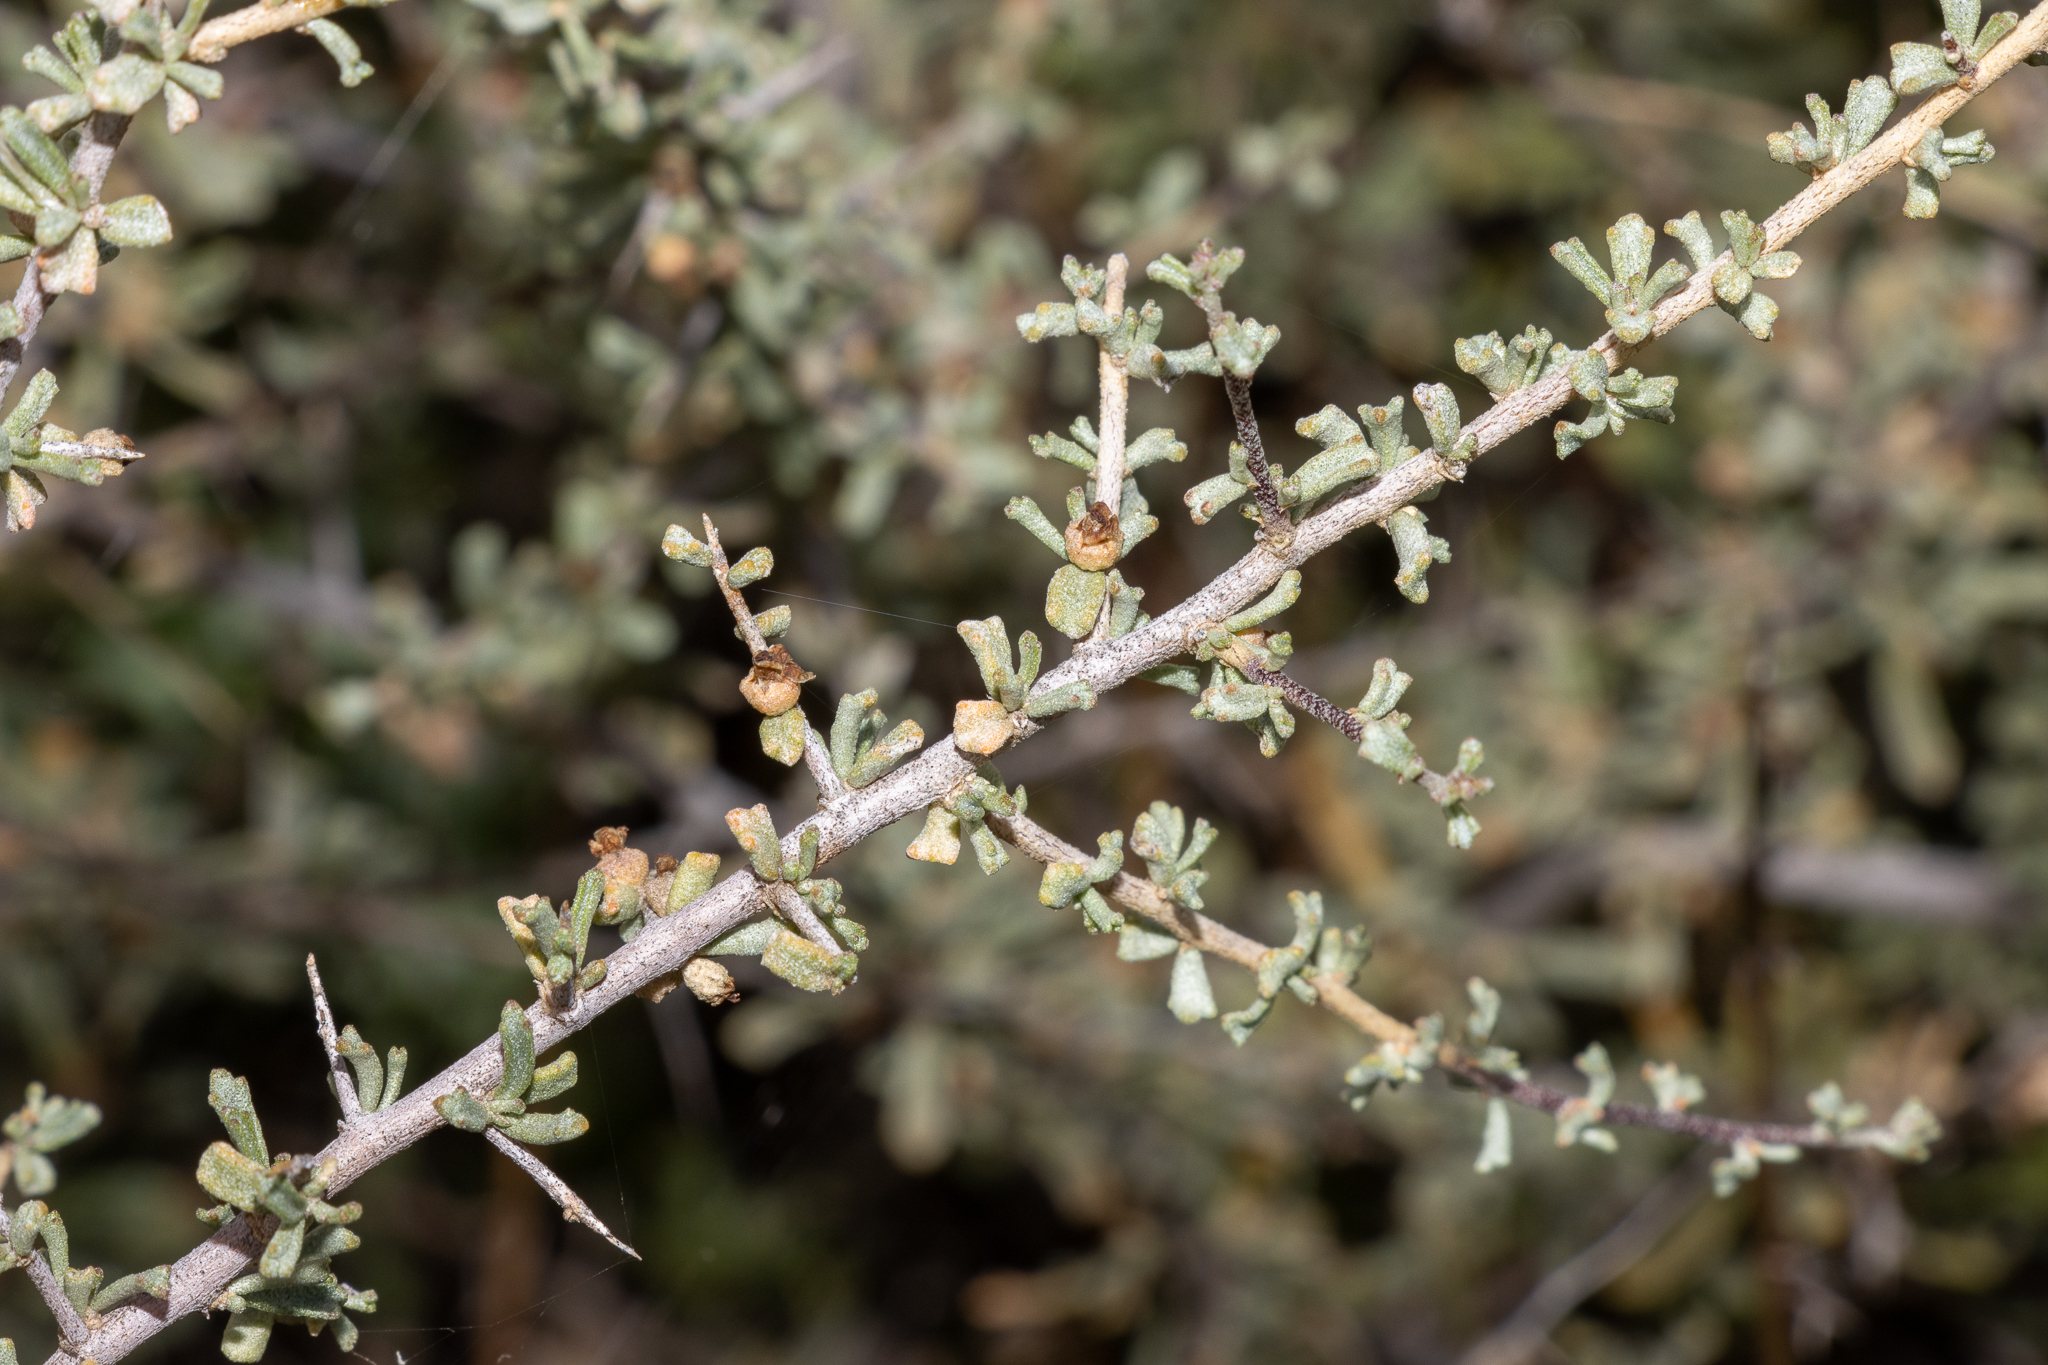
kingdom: Plantae
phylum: Tracheophyta
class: Magnoliopsida
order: Malvales
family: Malvaceae
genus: Lawrencia
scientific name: Lawrencia squamata
